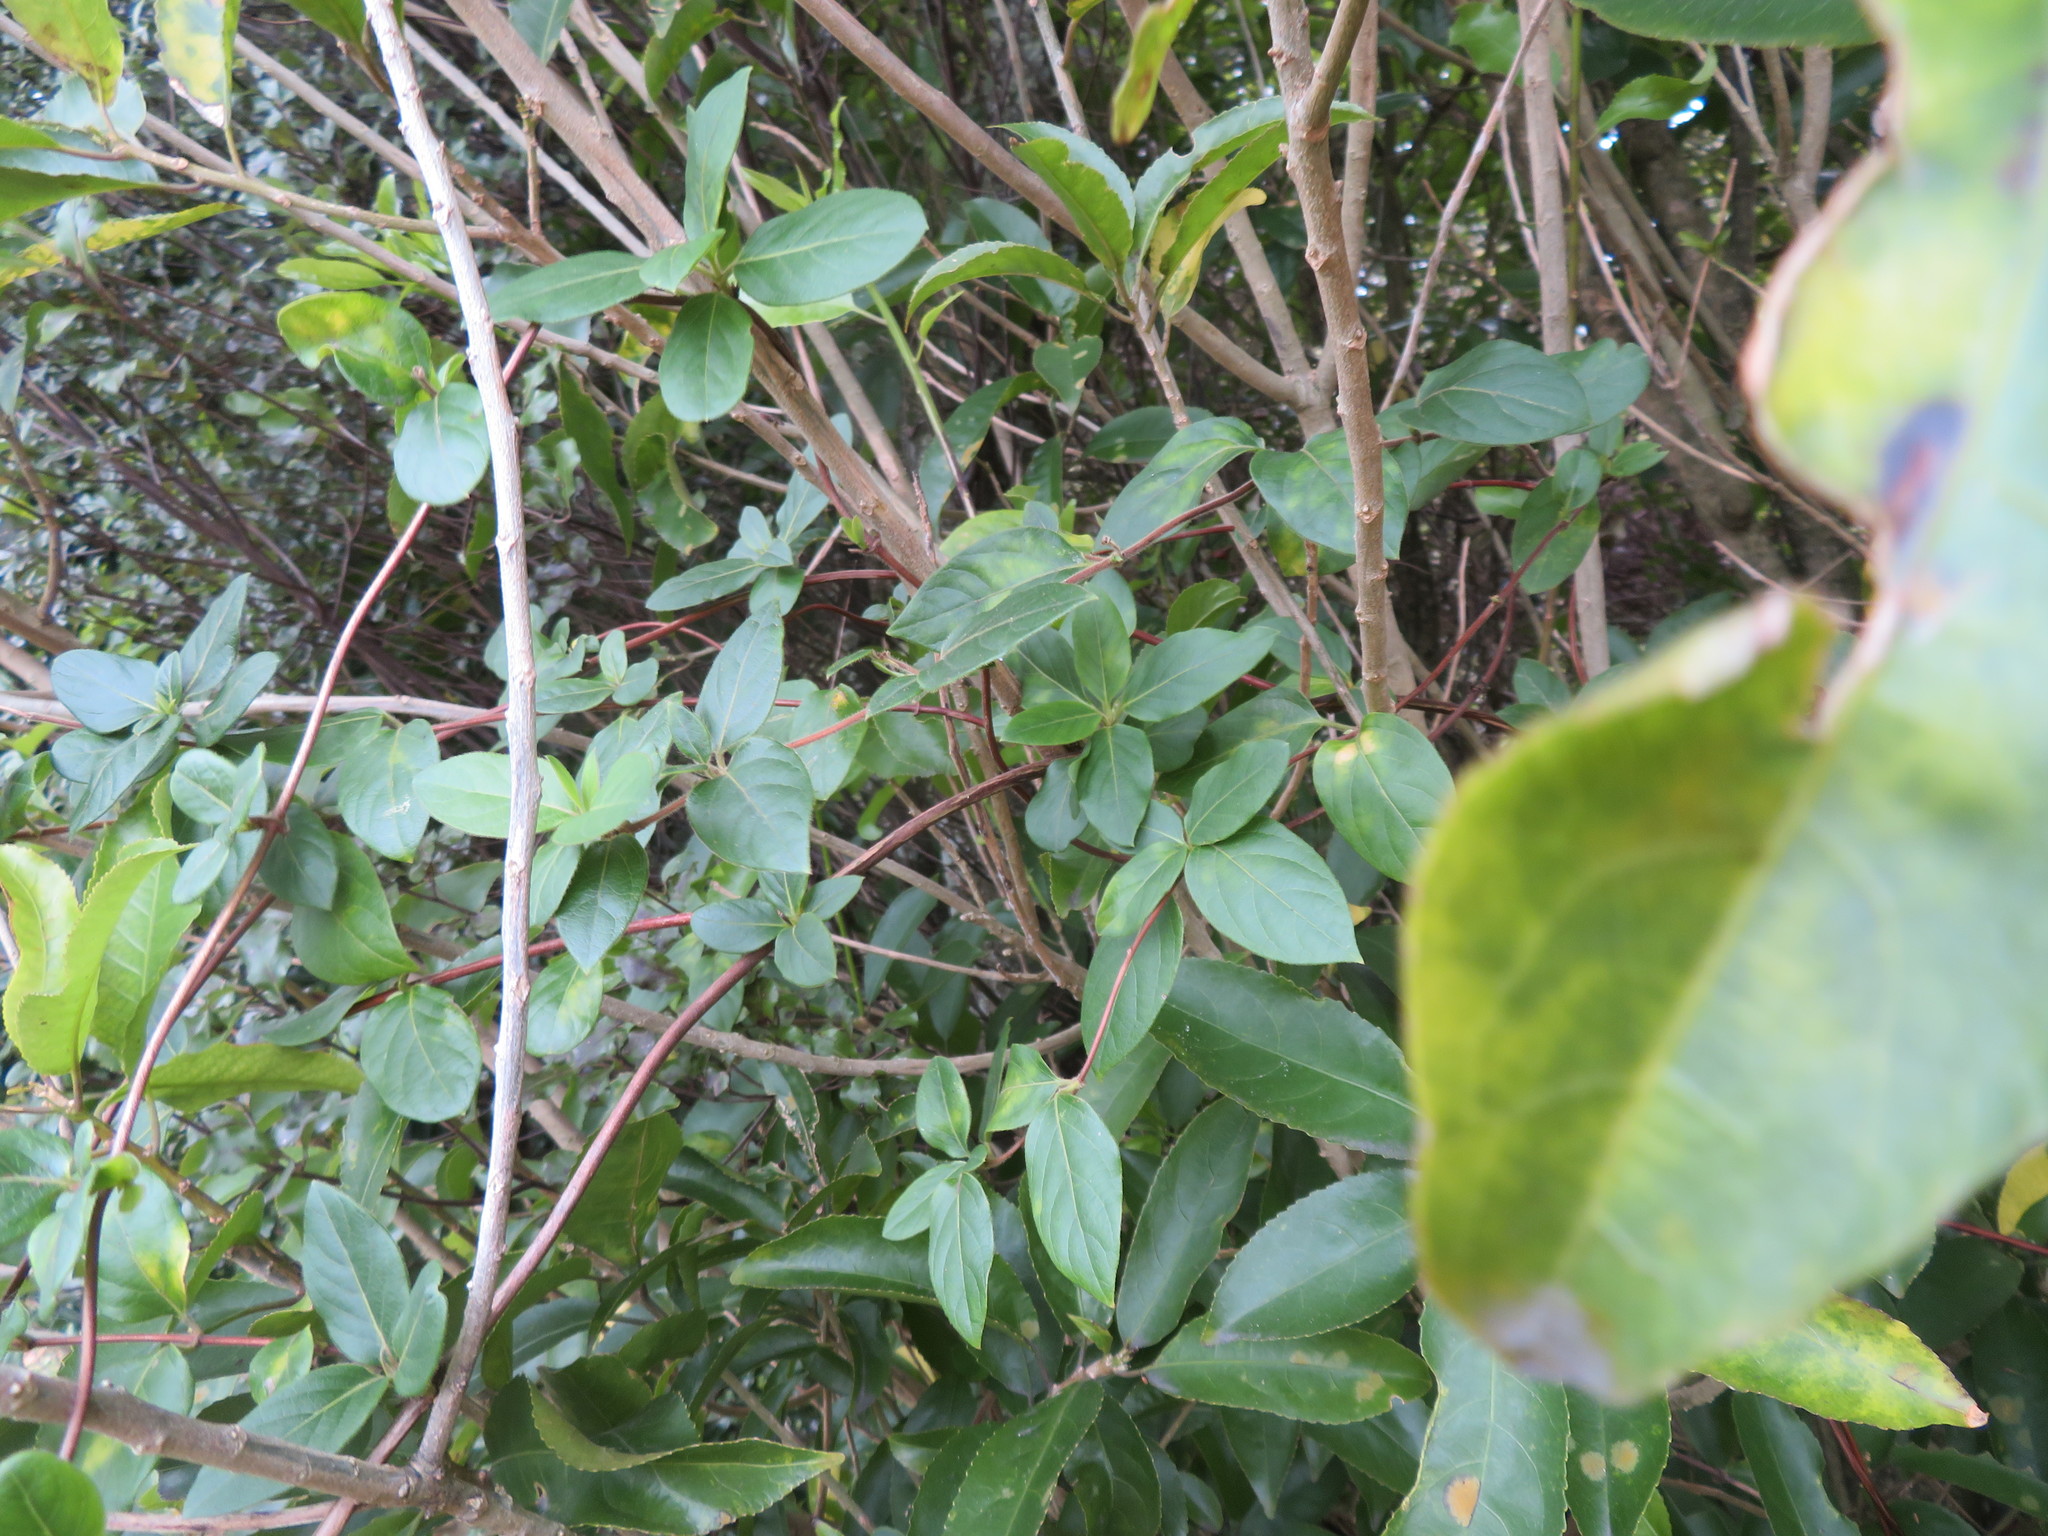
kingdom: Plantae
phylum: Tracheophyta
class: Magnoliopsida
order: Dipsacales
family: Caprifoliaceae
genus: Lonicera
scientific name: Lonicera japonica
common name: Japanese honeysuckle
